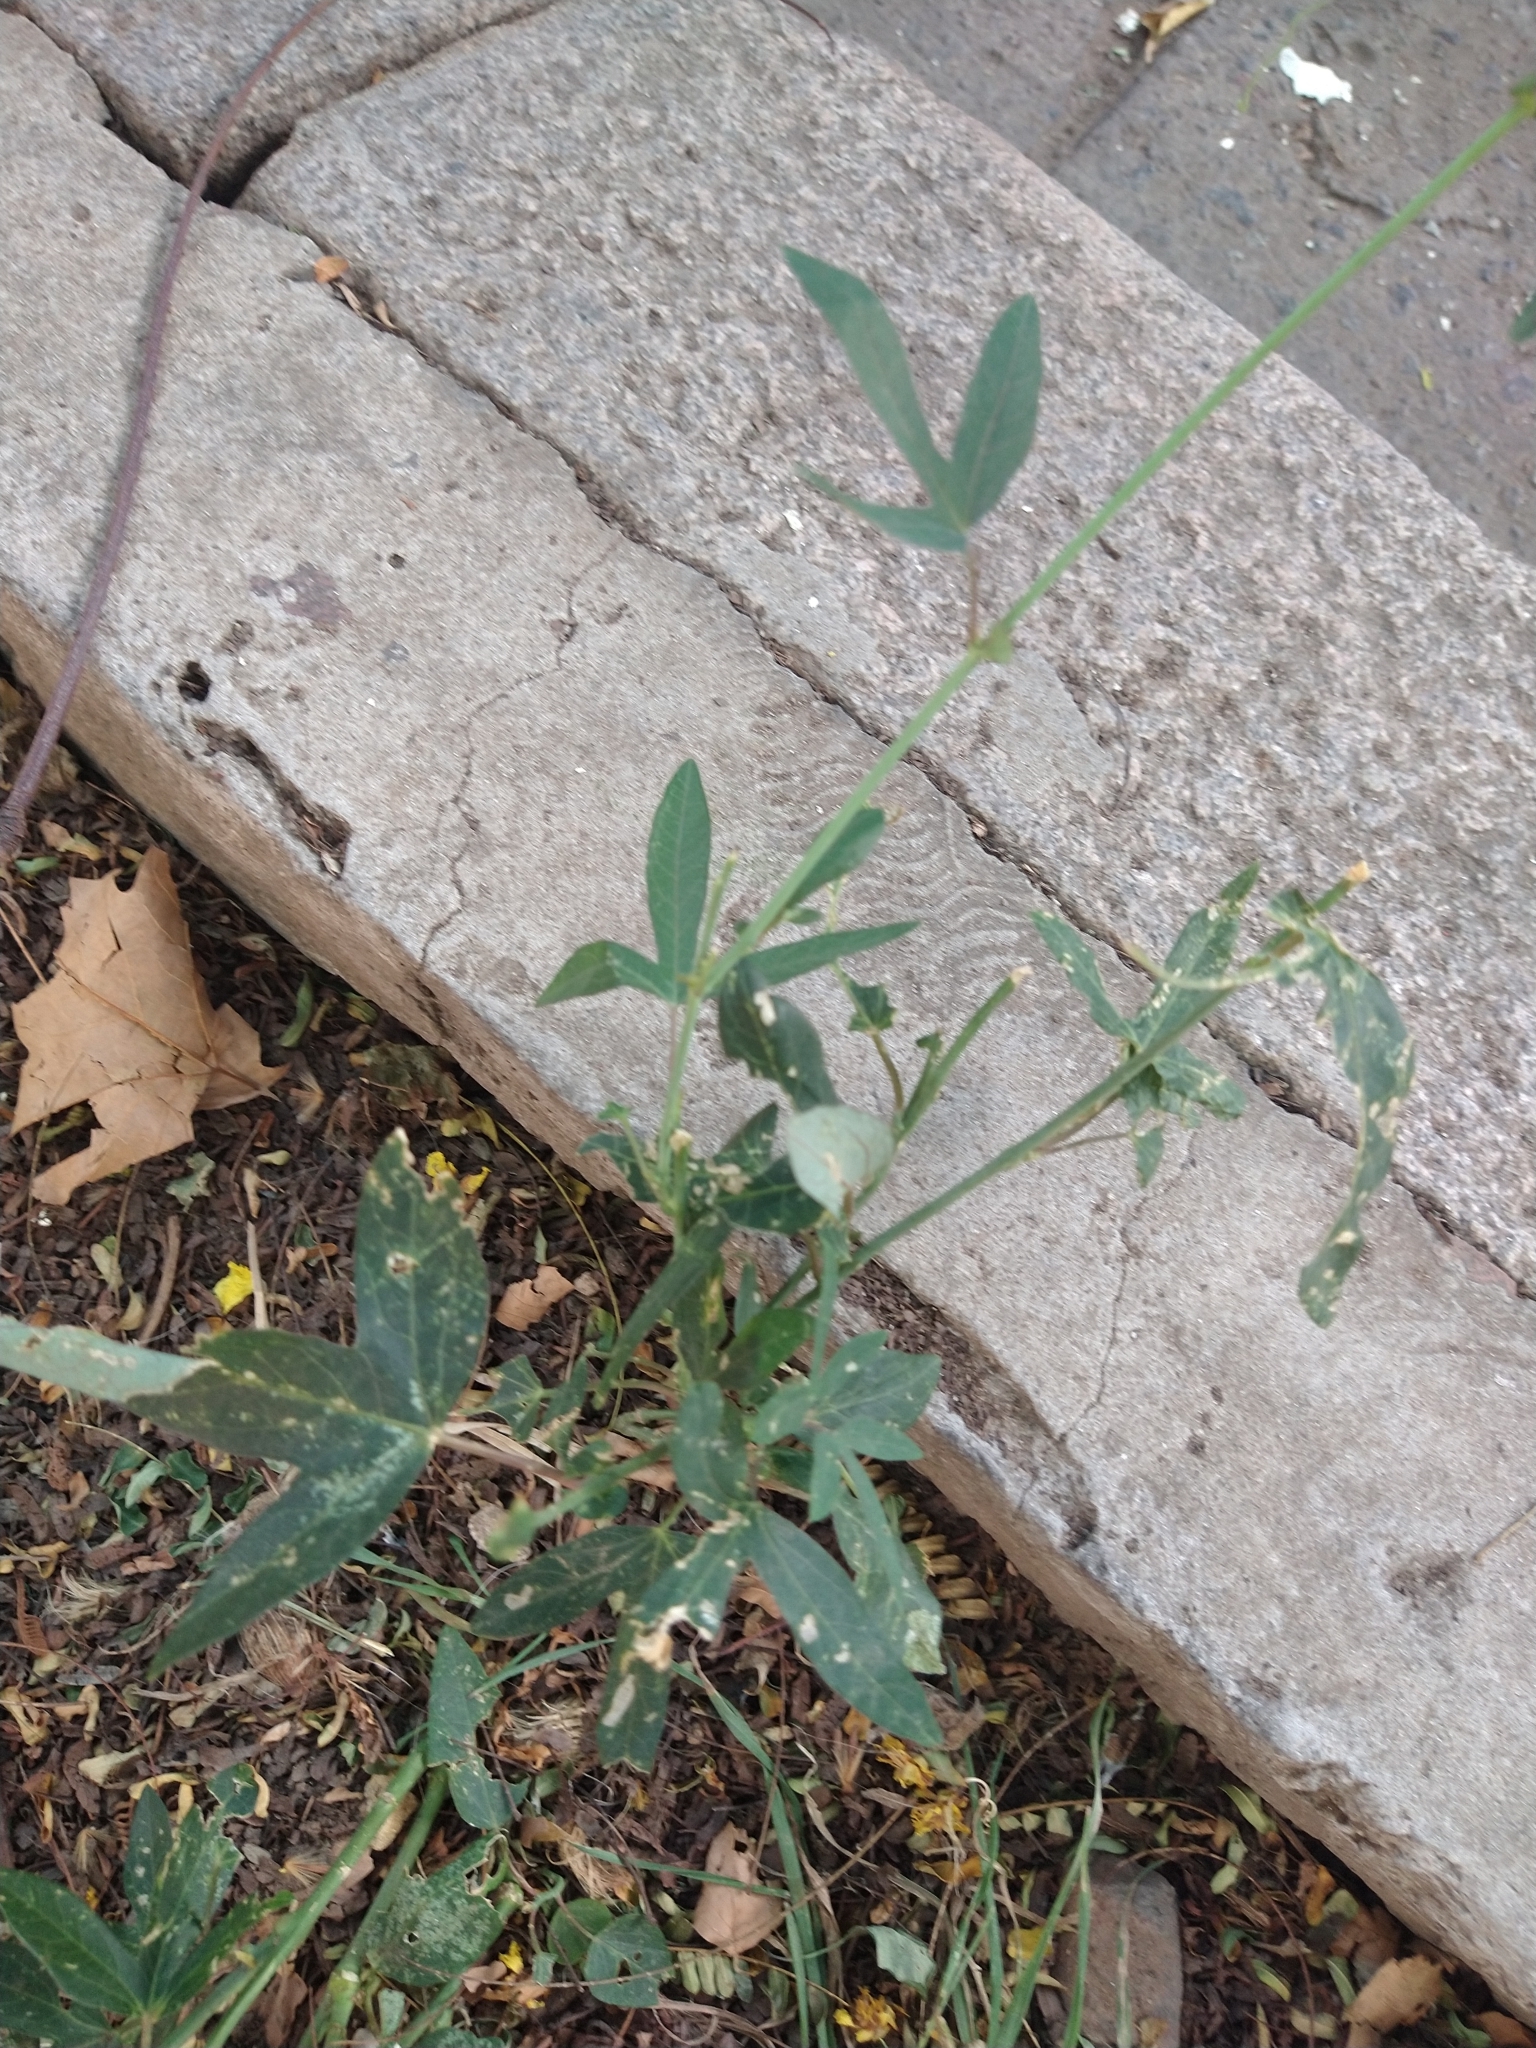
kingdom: Plantae
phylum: Tracheophyta
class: Magnoliopsida
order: Malpighiales
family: Passifloraceae
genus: Passiflora
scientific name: Passiflora caerulea
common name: Blue passionflower
